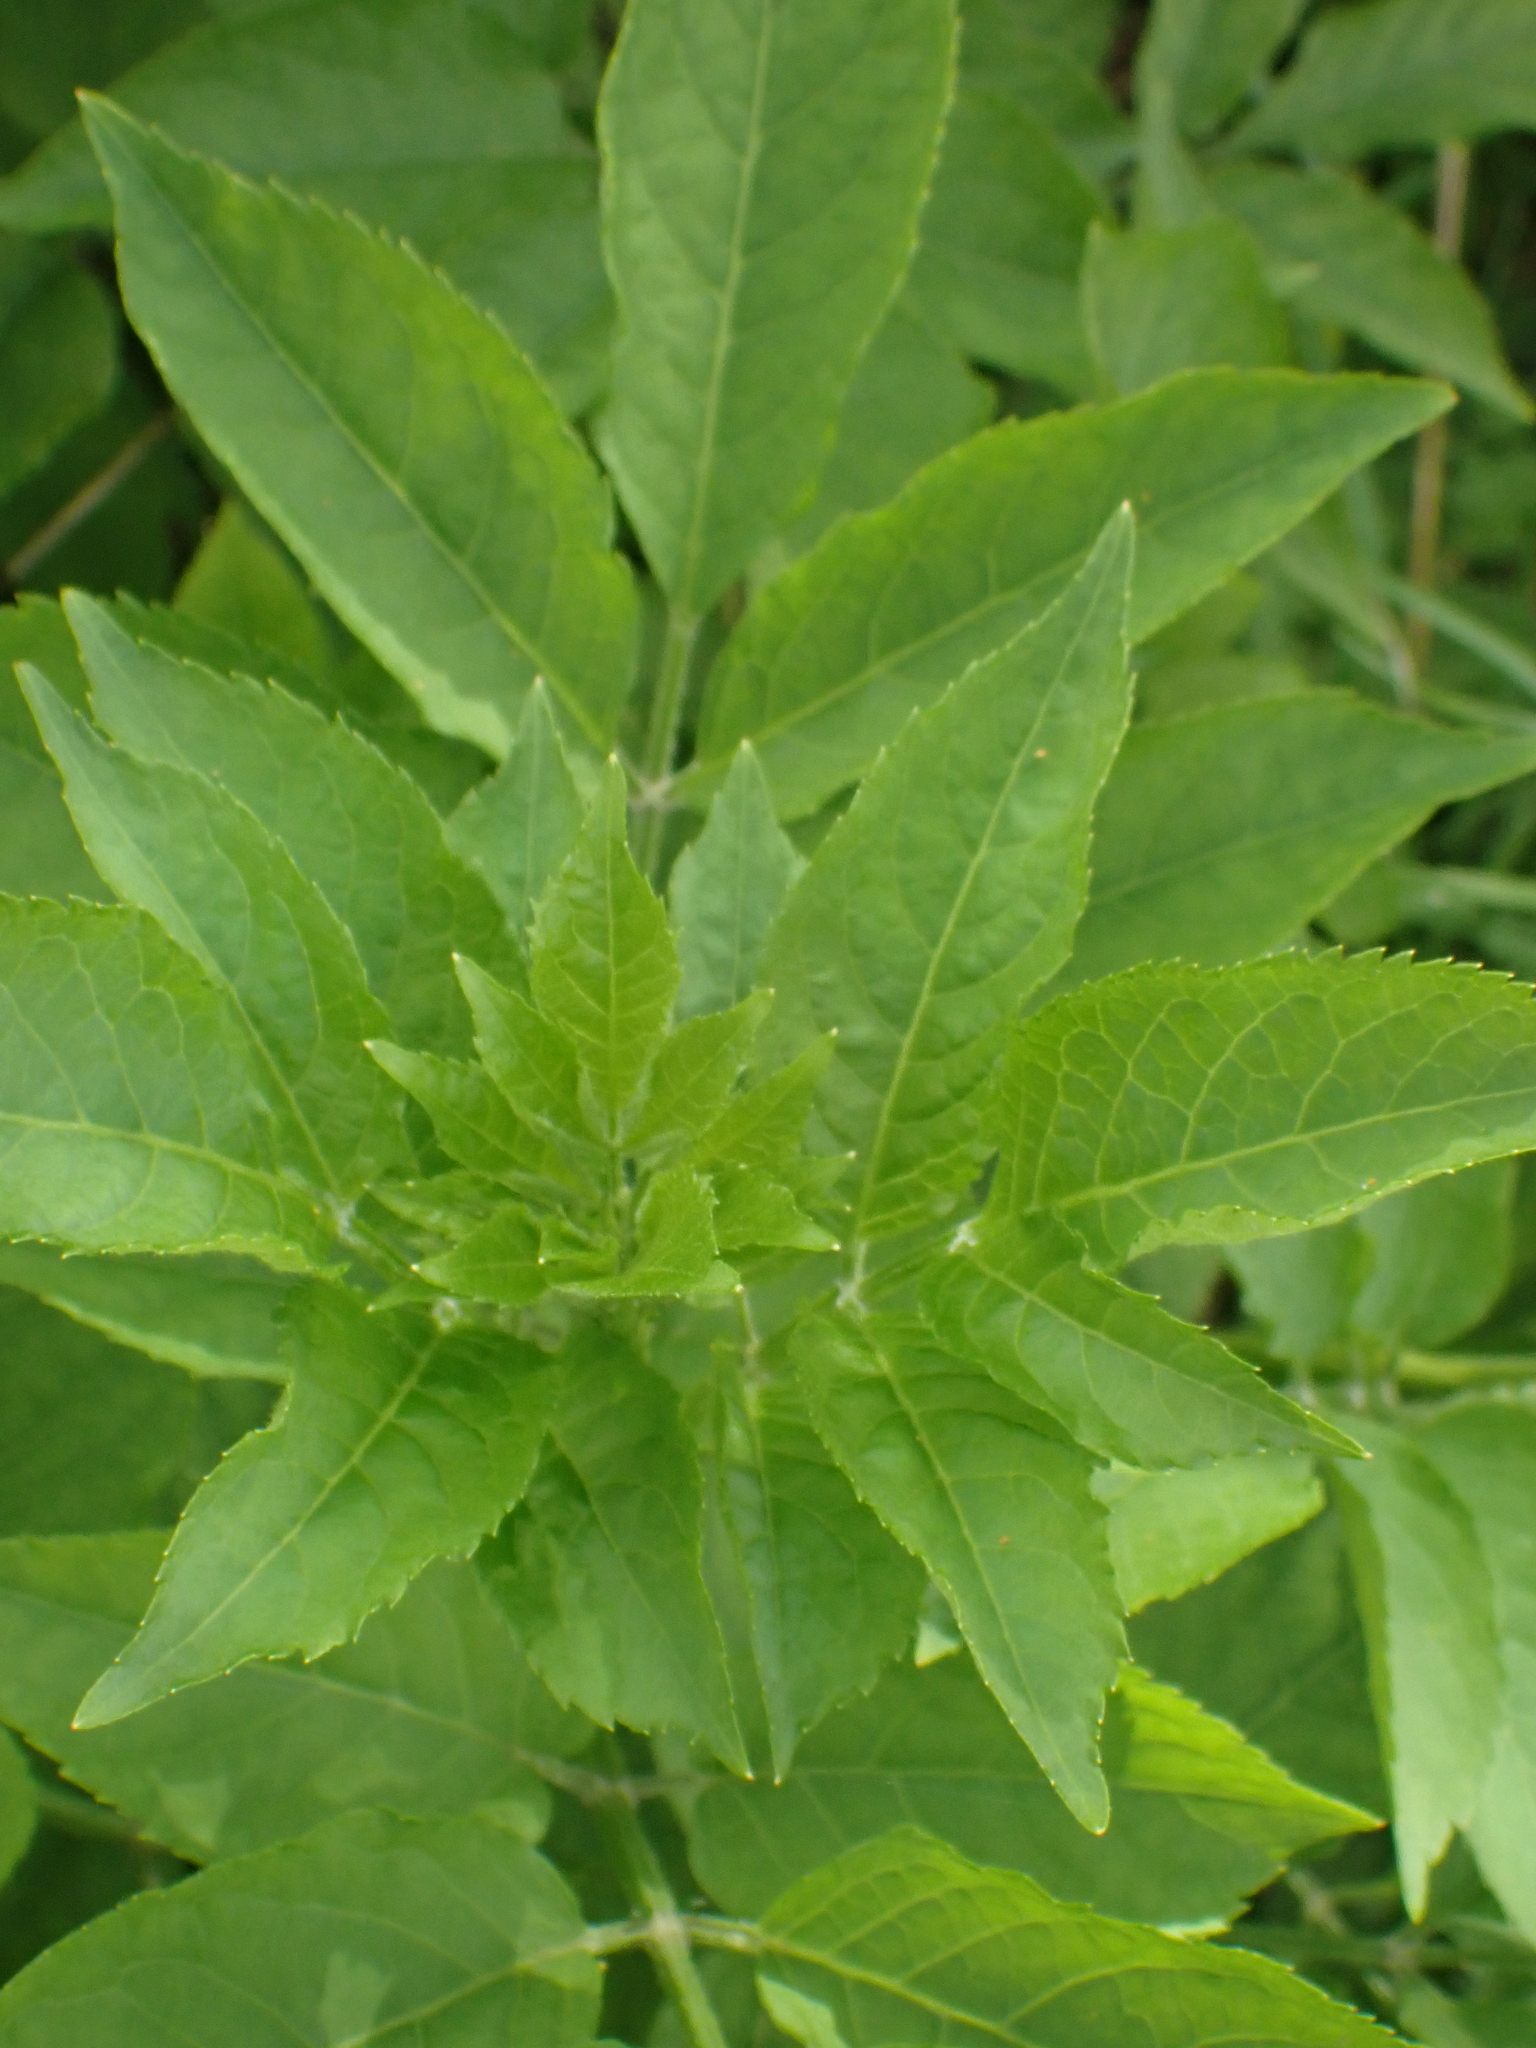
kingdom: Plantae
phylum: Tracheophyta
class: Magnoliopsida
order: Dipsacales
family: Viburnaceae
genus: Sambucus
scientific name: Sambucus nigra
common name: Elder
